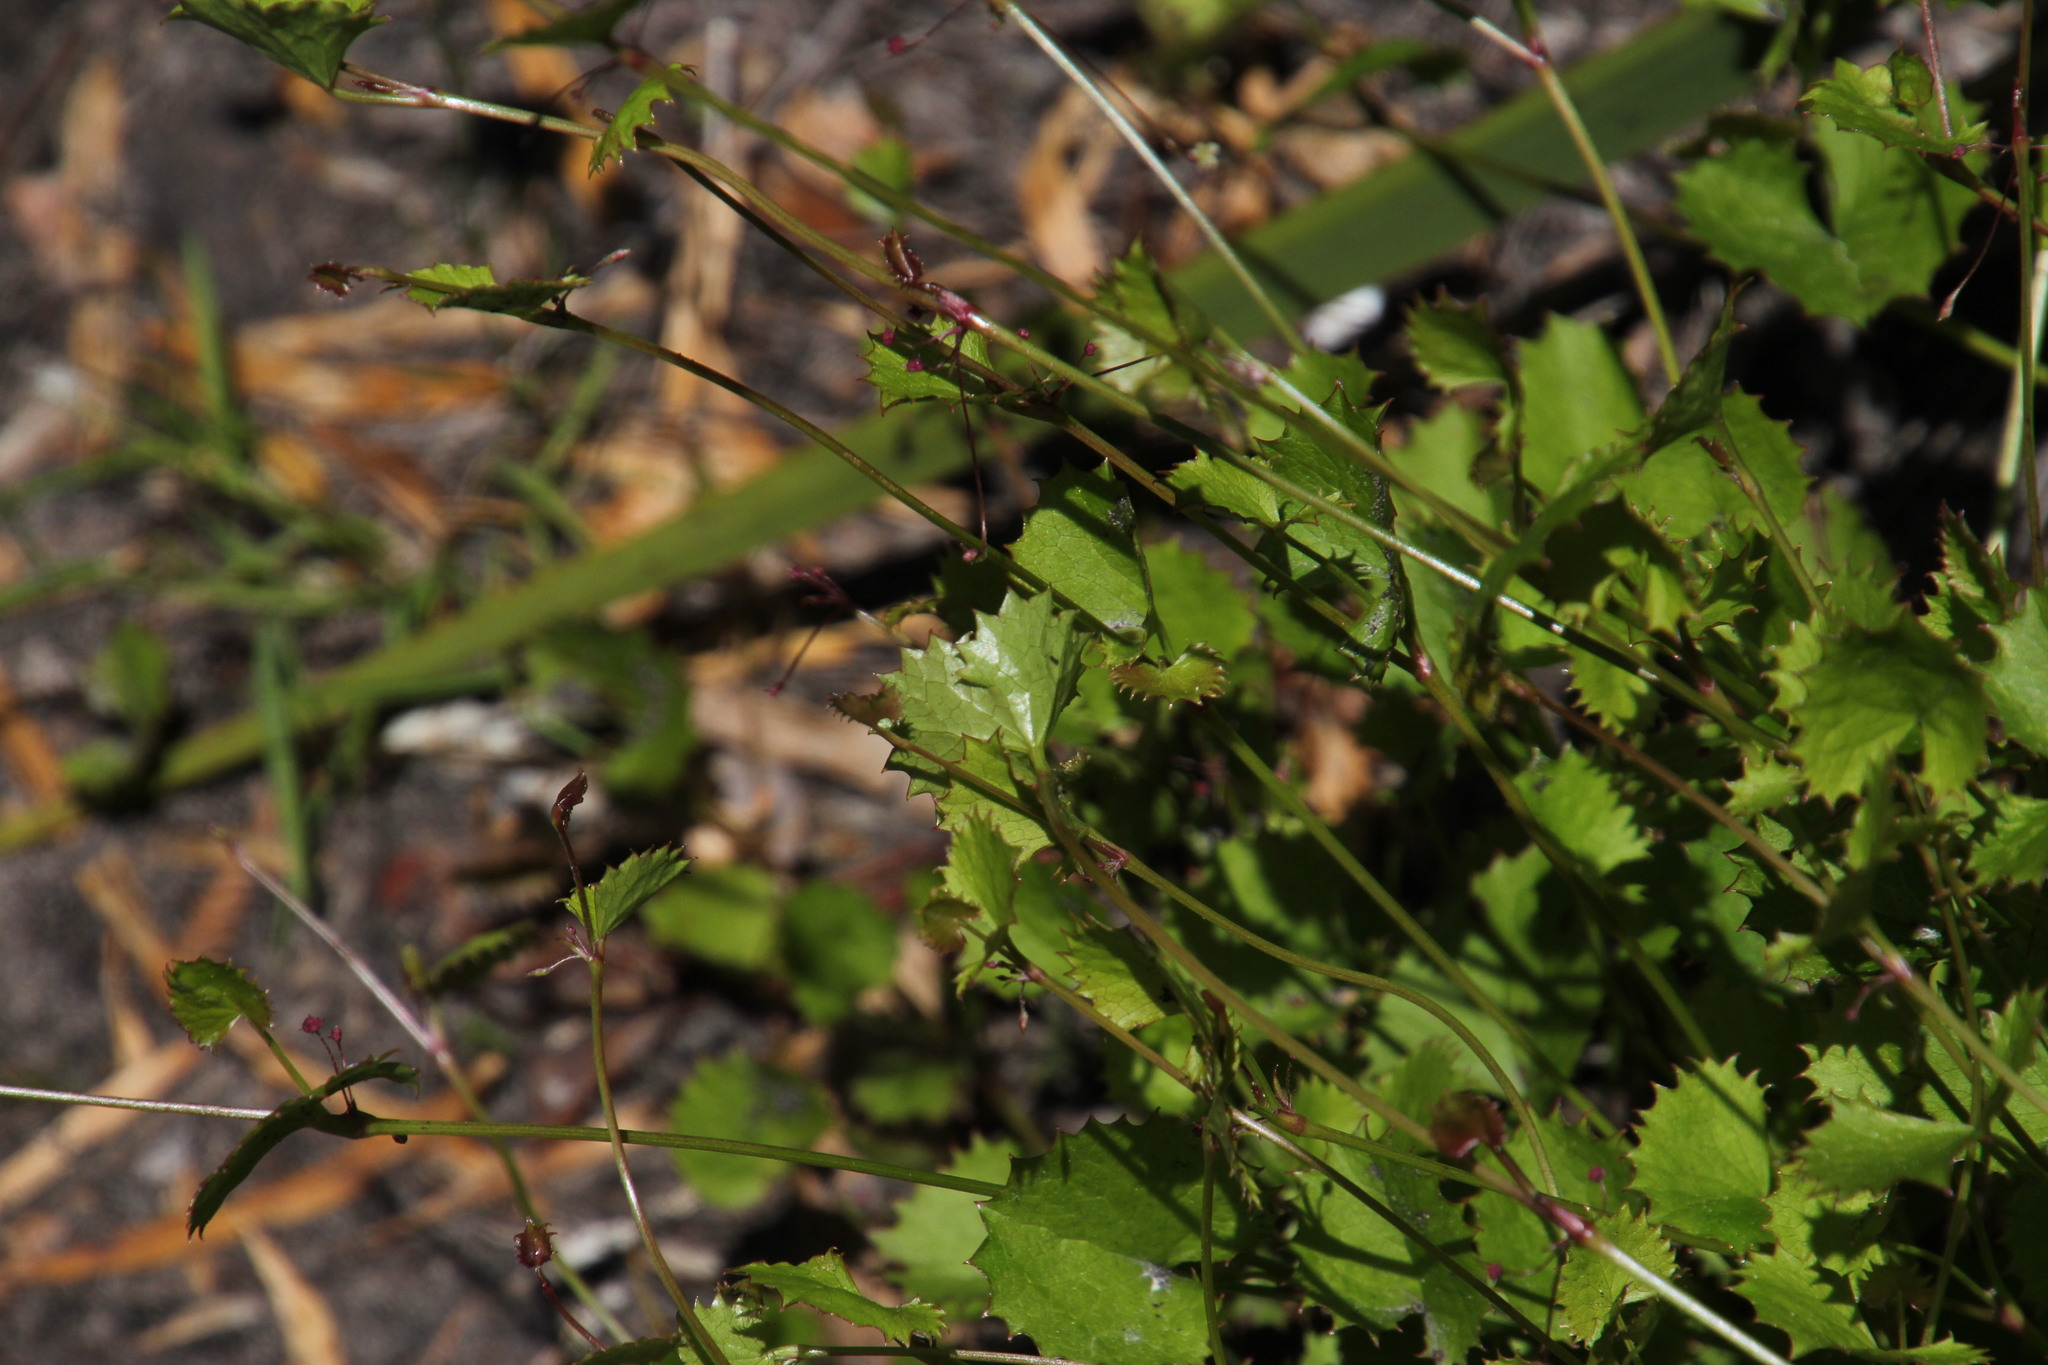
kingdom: Plantae
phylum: Tracheophyta
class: Magnoliopsida
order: Apiales
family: Apiaceae
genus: Centella
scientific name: Centella callioda
